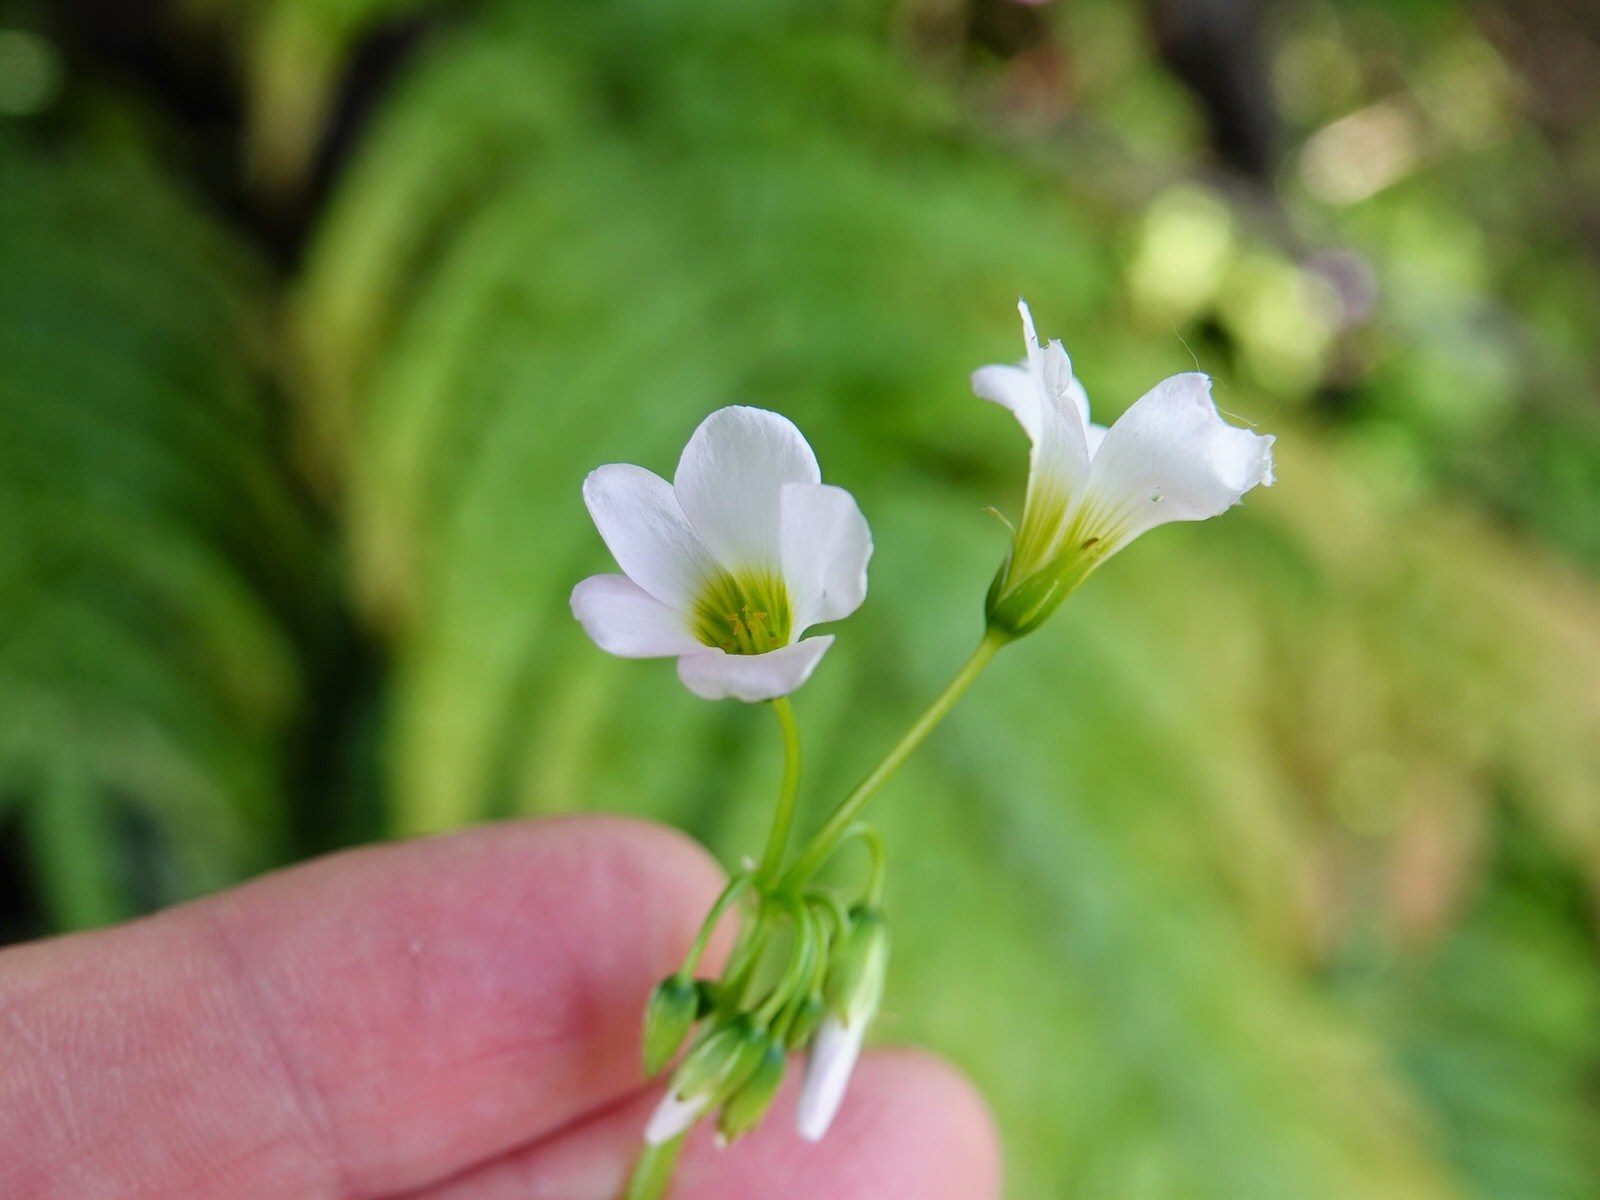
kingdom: Plantae
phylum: Tracheophyta
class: Magnoliopsida
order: Oxalidales
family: Oxalidaceae
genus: Oxalis
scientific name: Oxalis incarnata
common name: Pale pink-sorrel
